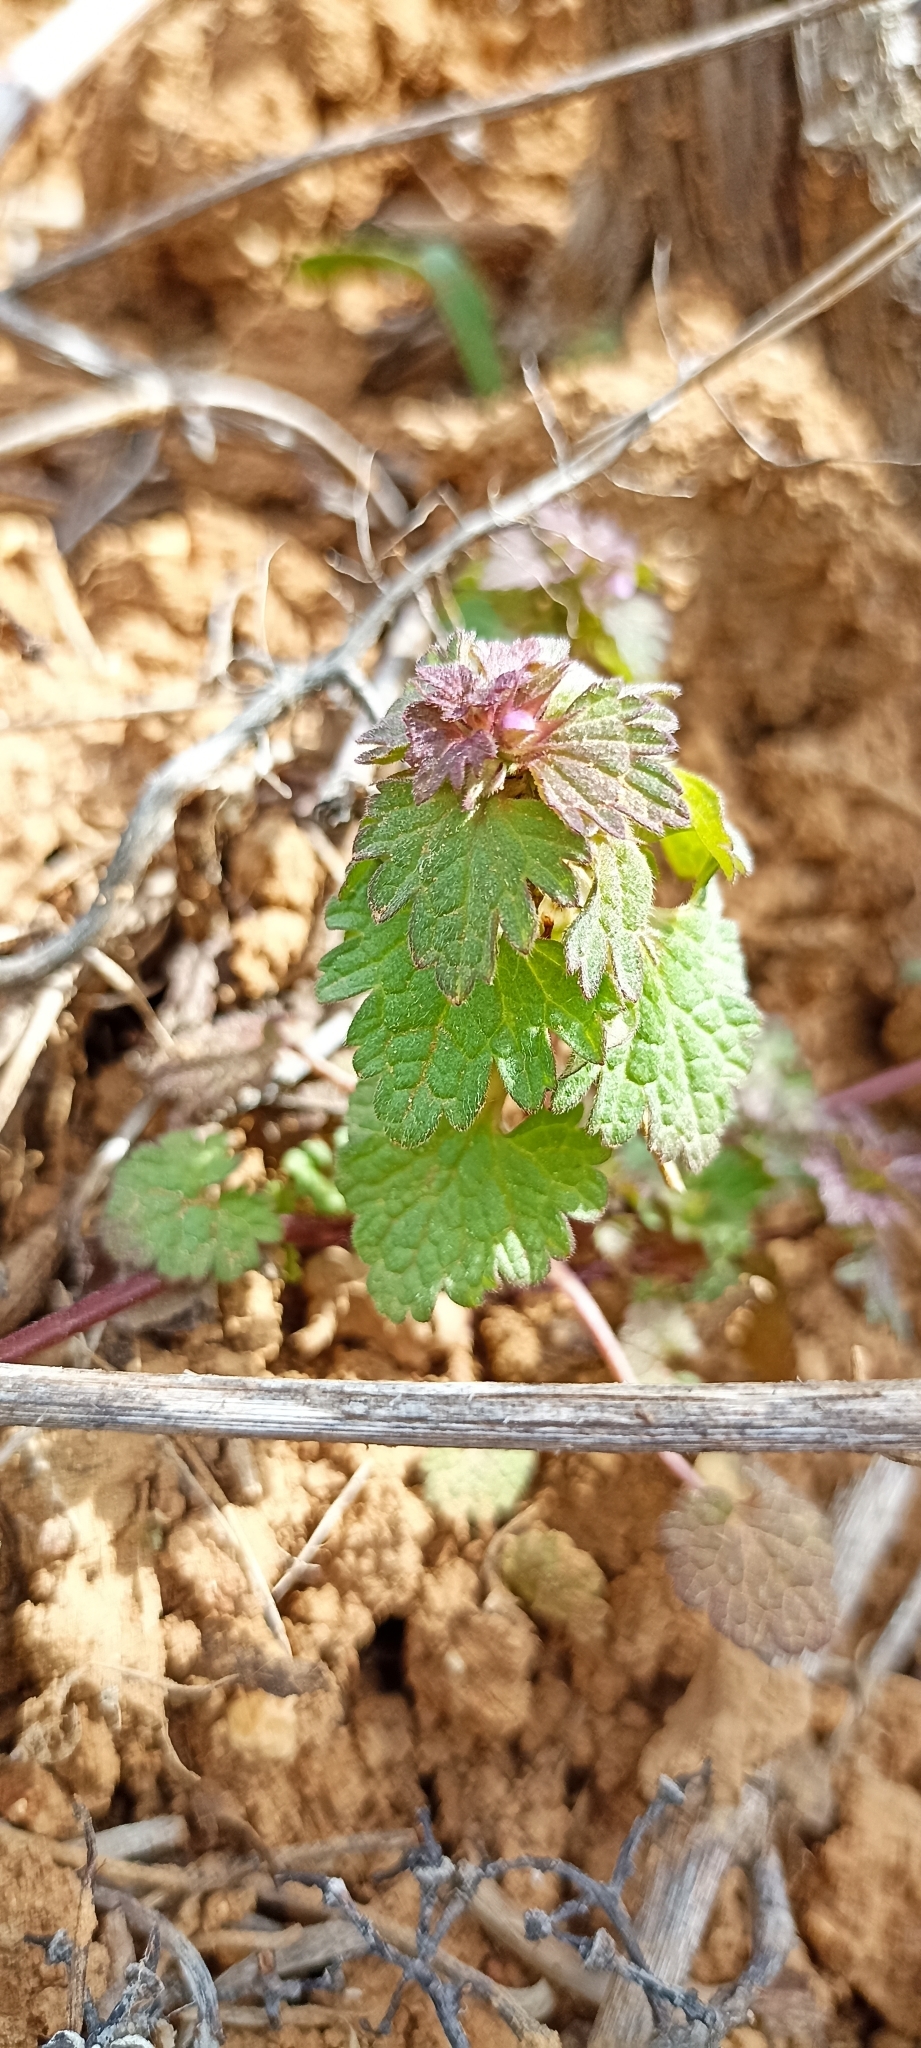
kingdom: Plantae
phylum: Tracheophyta
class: Magnoliopsida
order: Lamiales
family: Lamiaceae
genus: Lamium
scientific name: Lamium hybridum
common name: Cut-leaved dead-nettle
